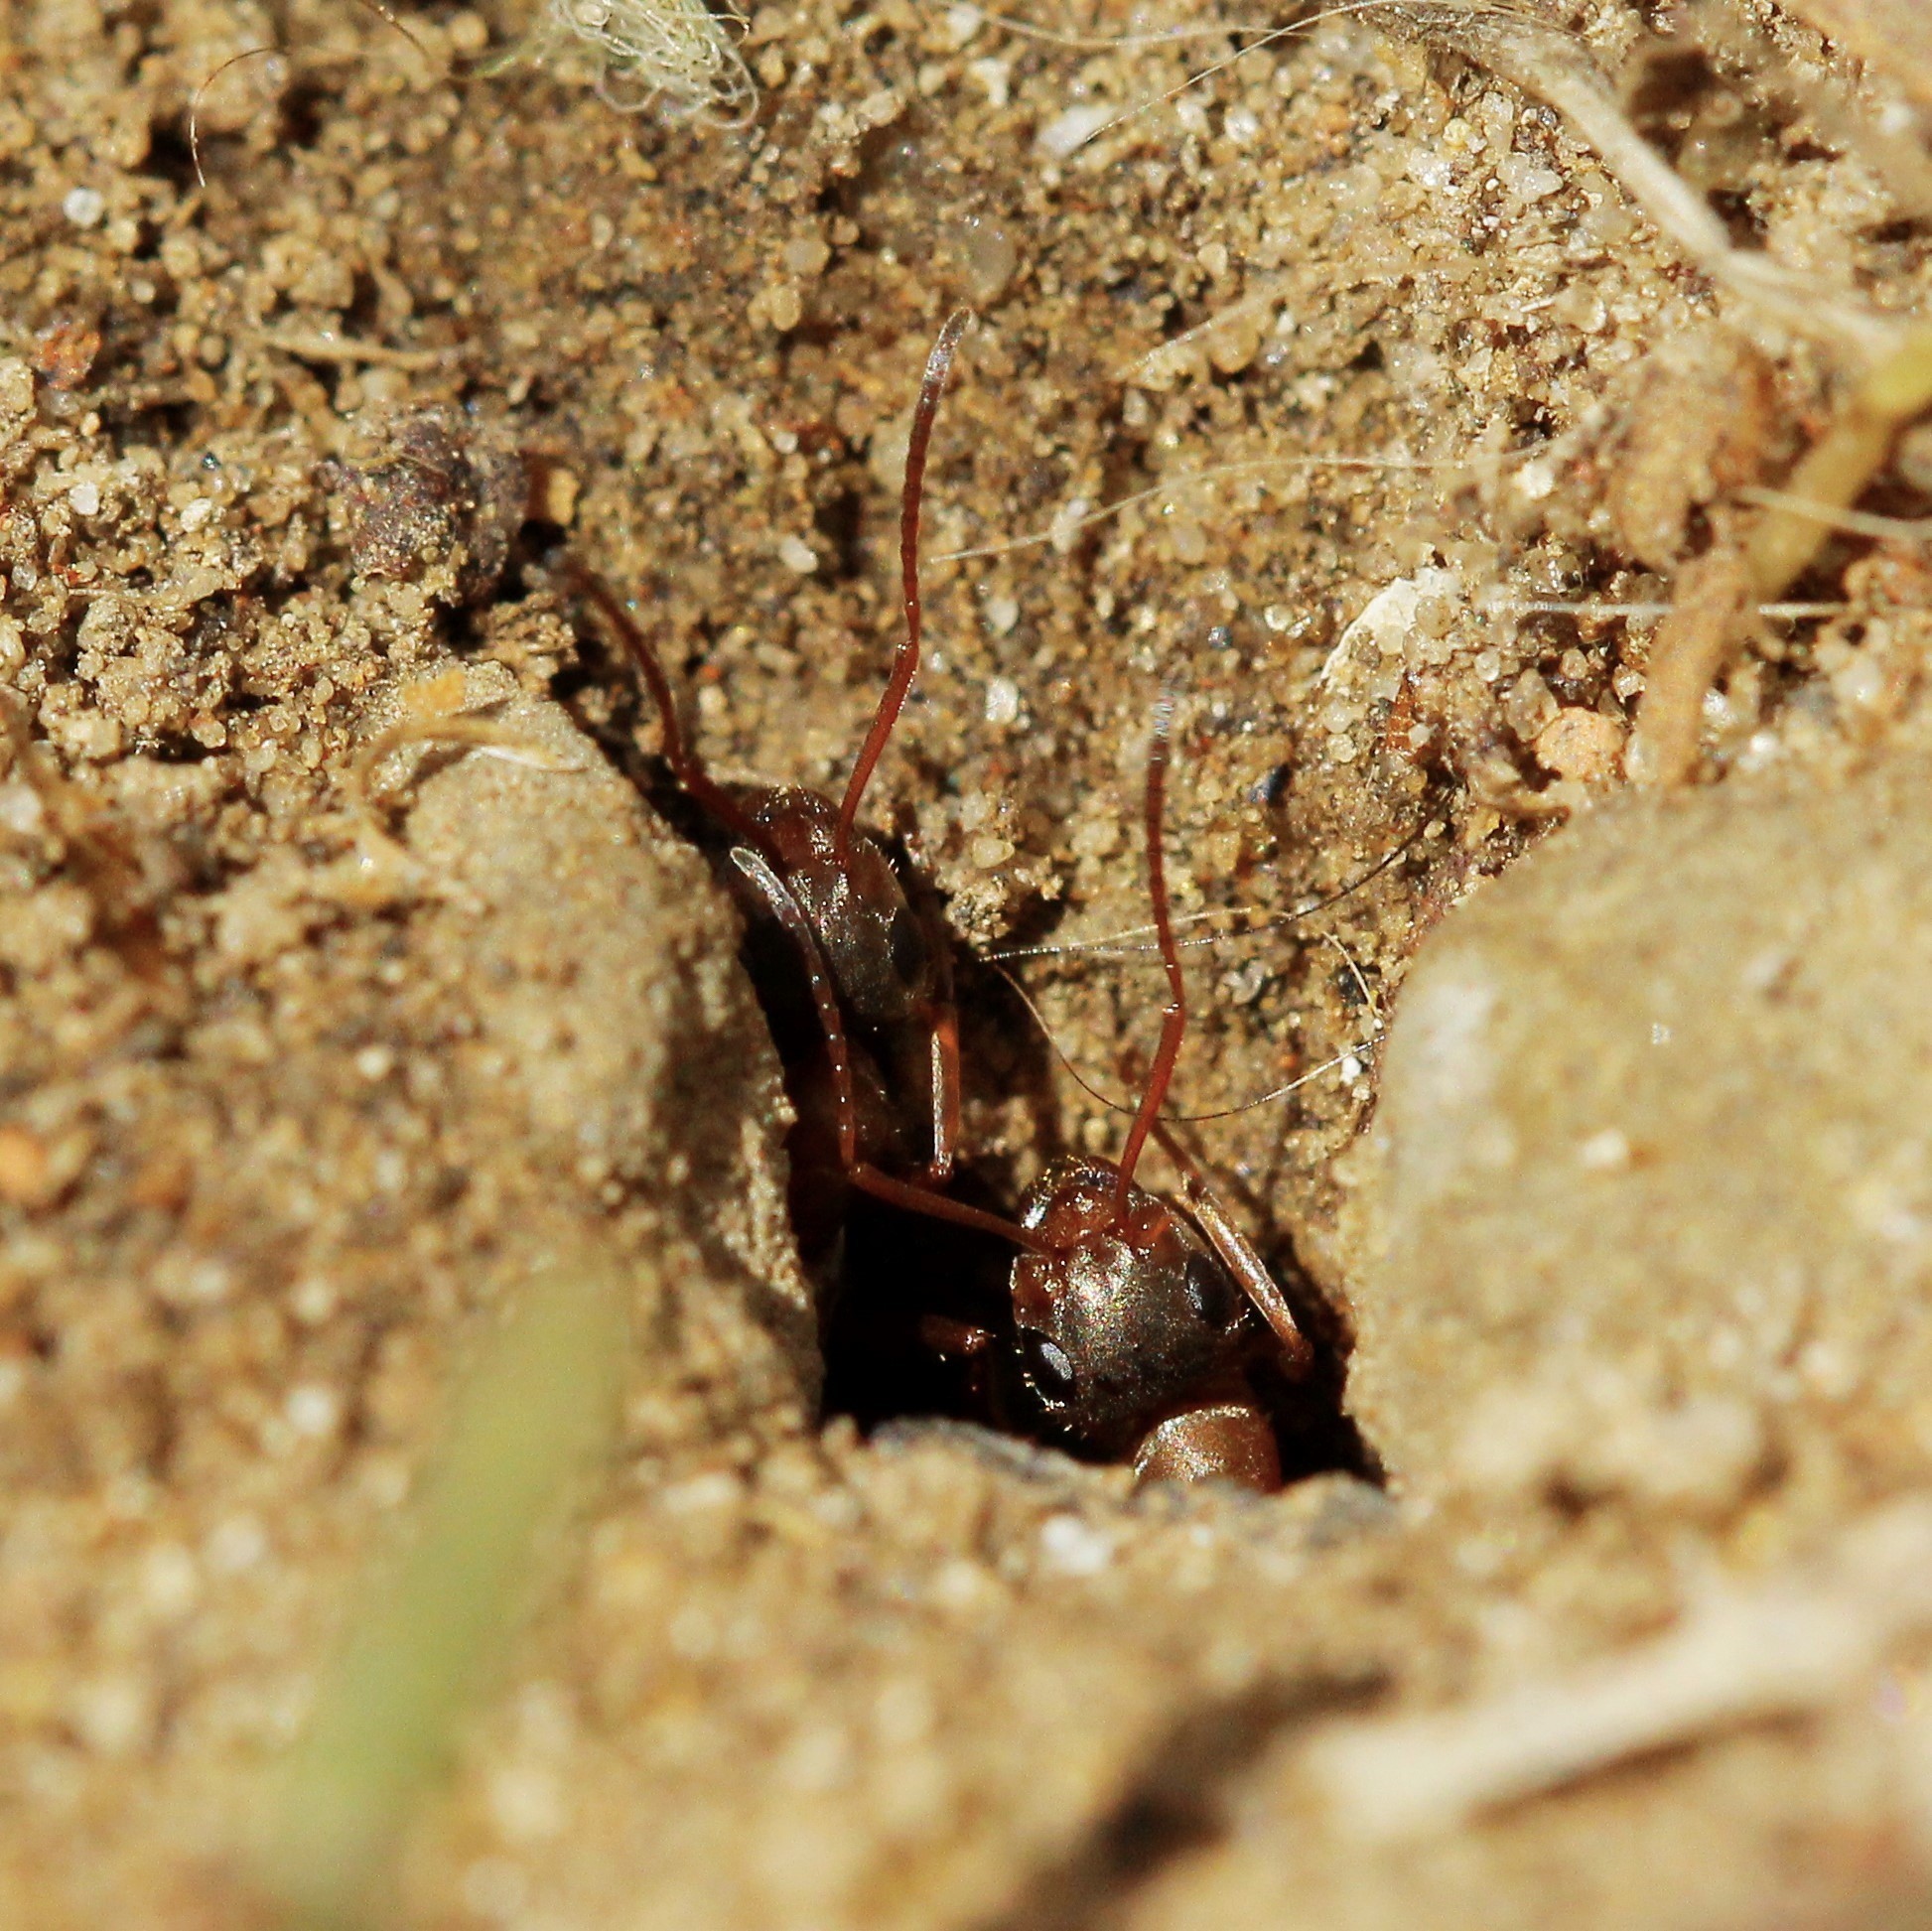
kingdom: Animalia
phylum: Arthropoda
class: Insecta
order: Hymenoptera
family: Formicidae
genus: Formica
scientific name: Formica cinerea
